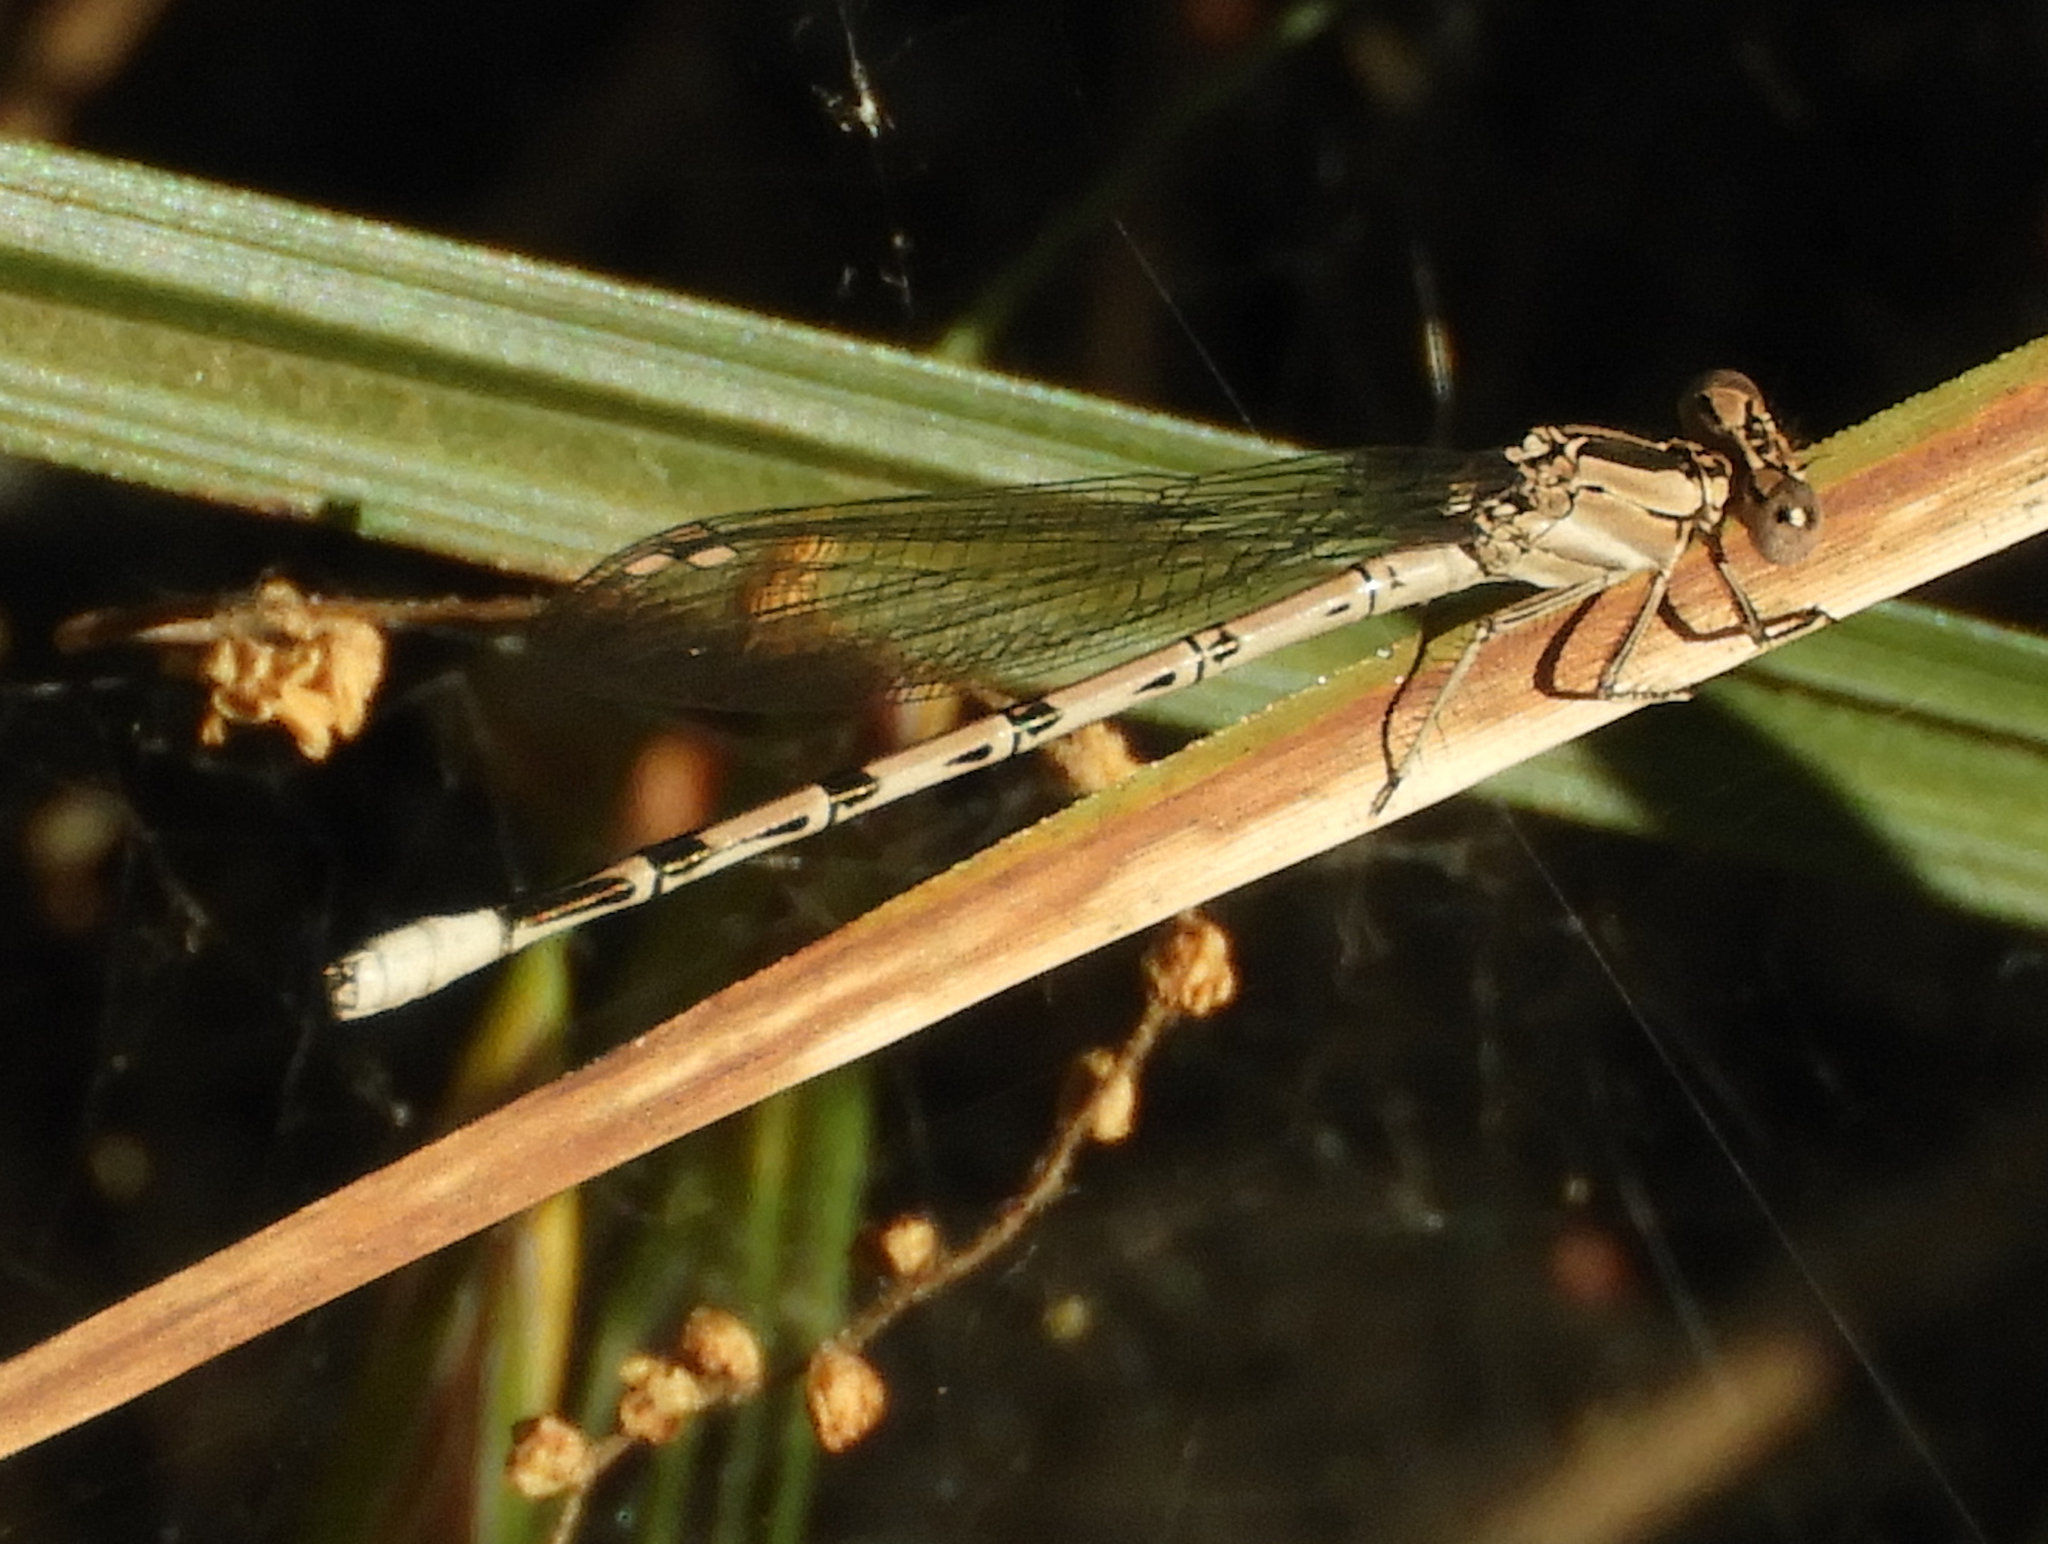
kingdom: Animalia
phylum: Arthropoda
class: Insecta
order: Odonata
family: Coenagrionidae
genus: Argia
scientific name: Argia vivida
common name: Vivid dancer
